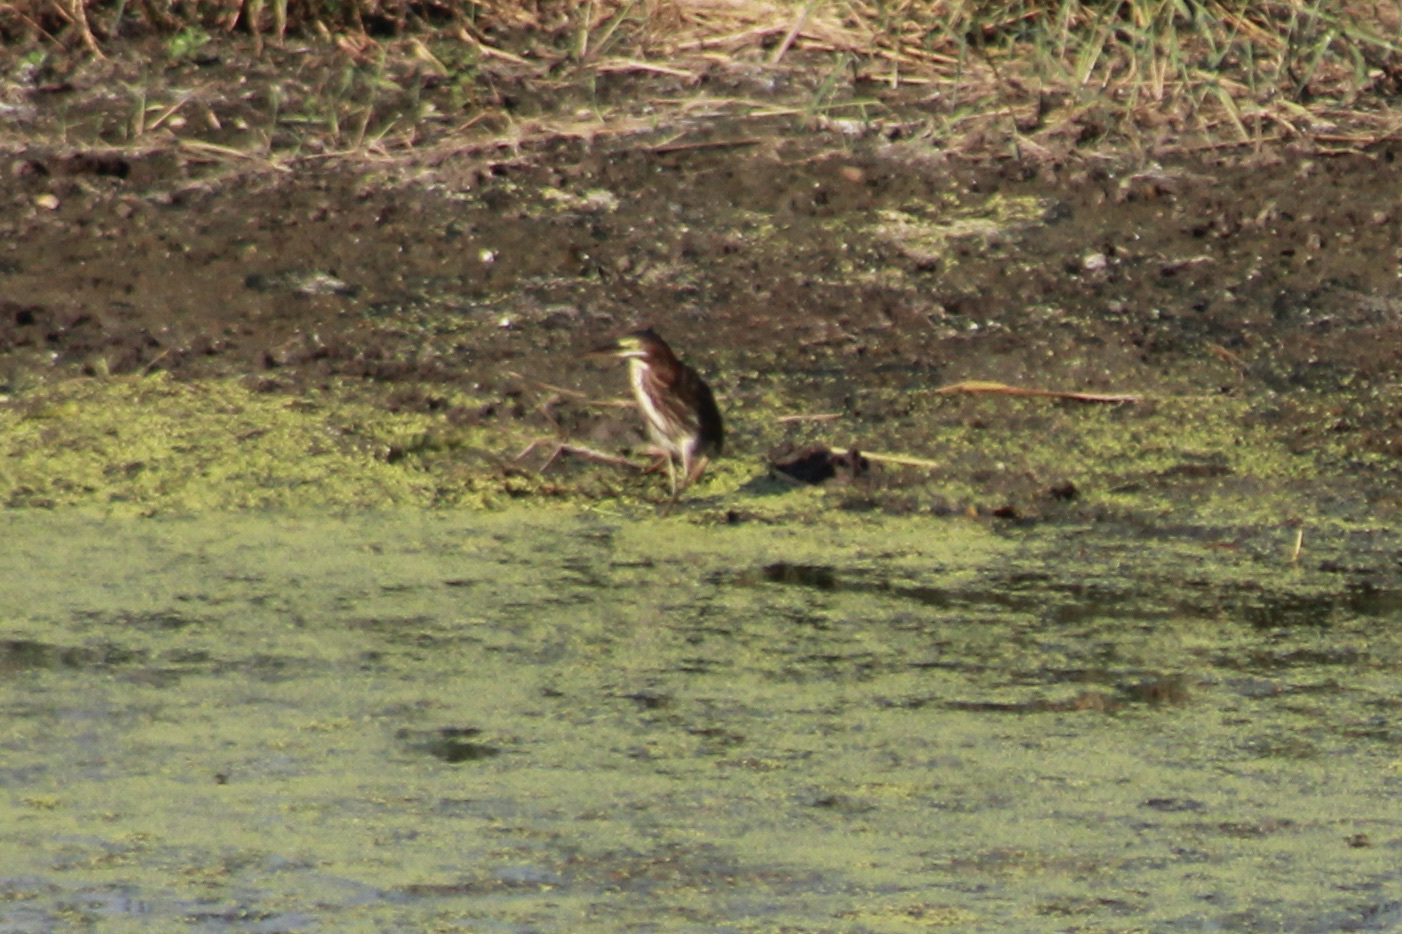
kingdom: Animalia
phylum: Chordata
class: Aves
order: Pelecaniformes
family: Ardeidae
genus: Butorides
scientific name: Butorides virescens
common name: Green heron
